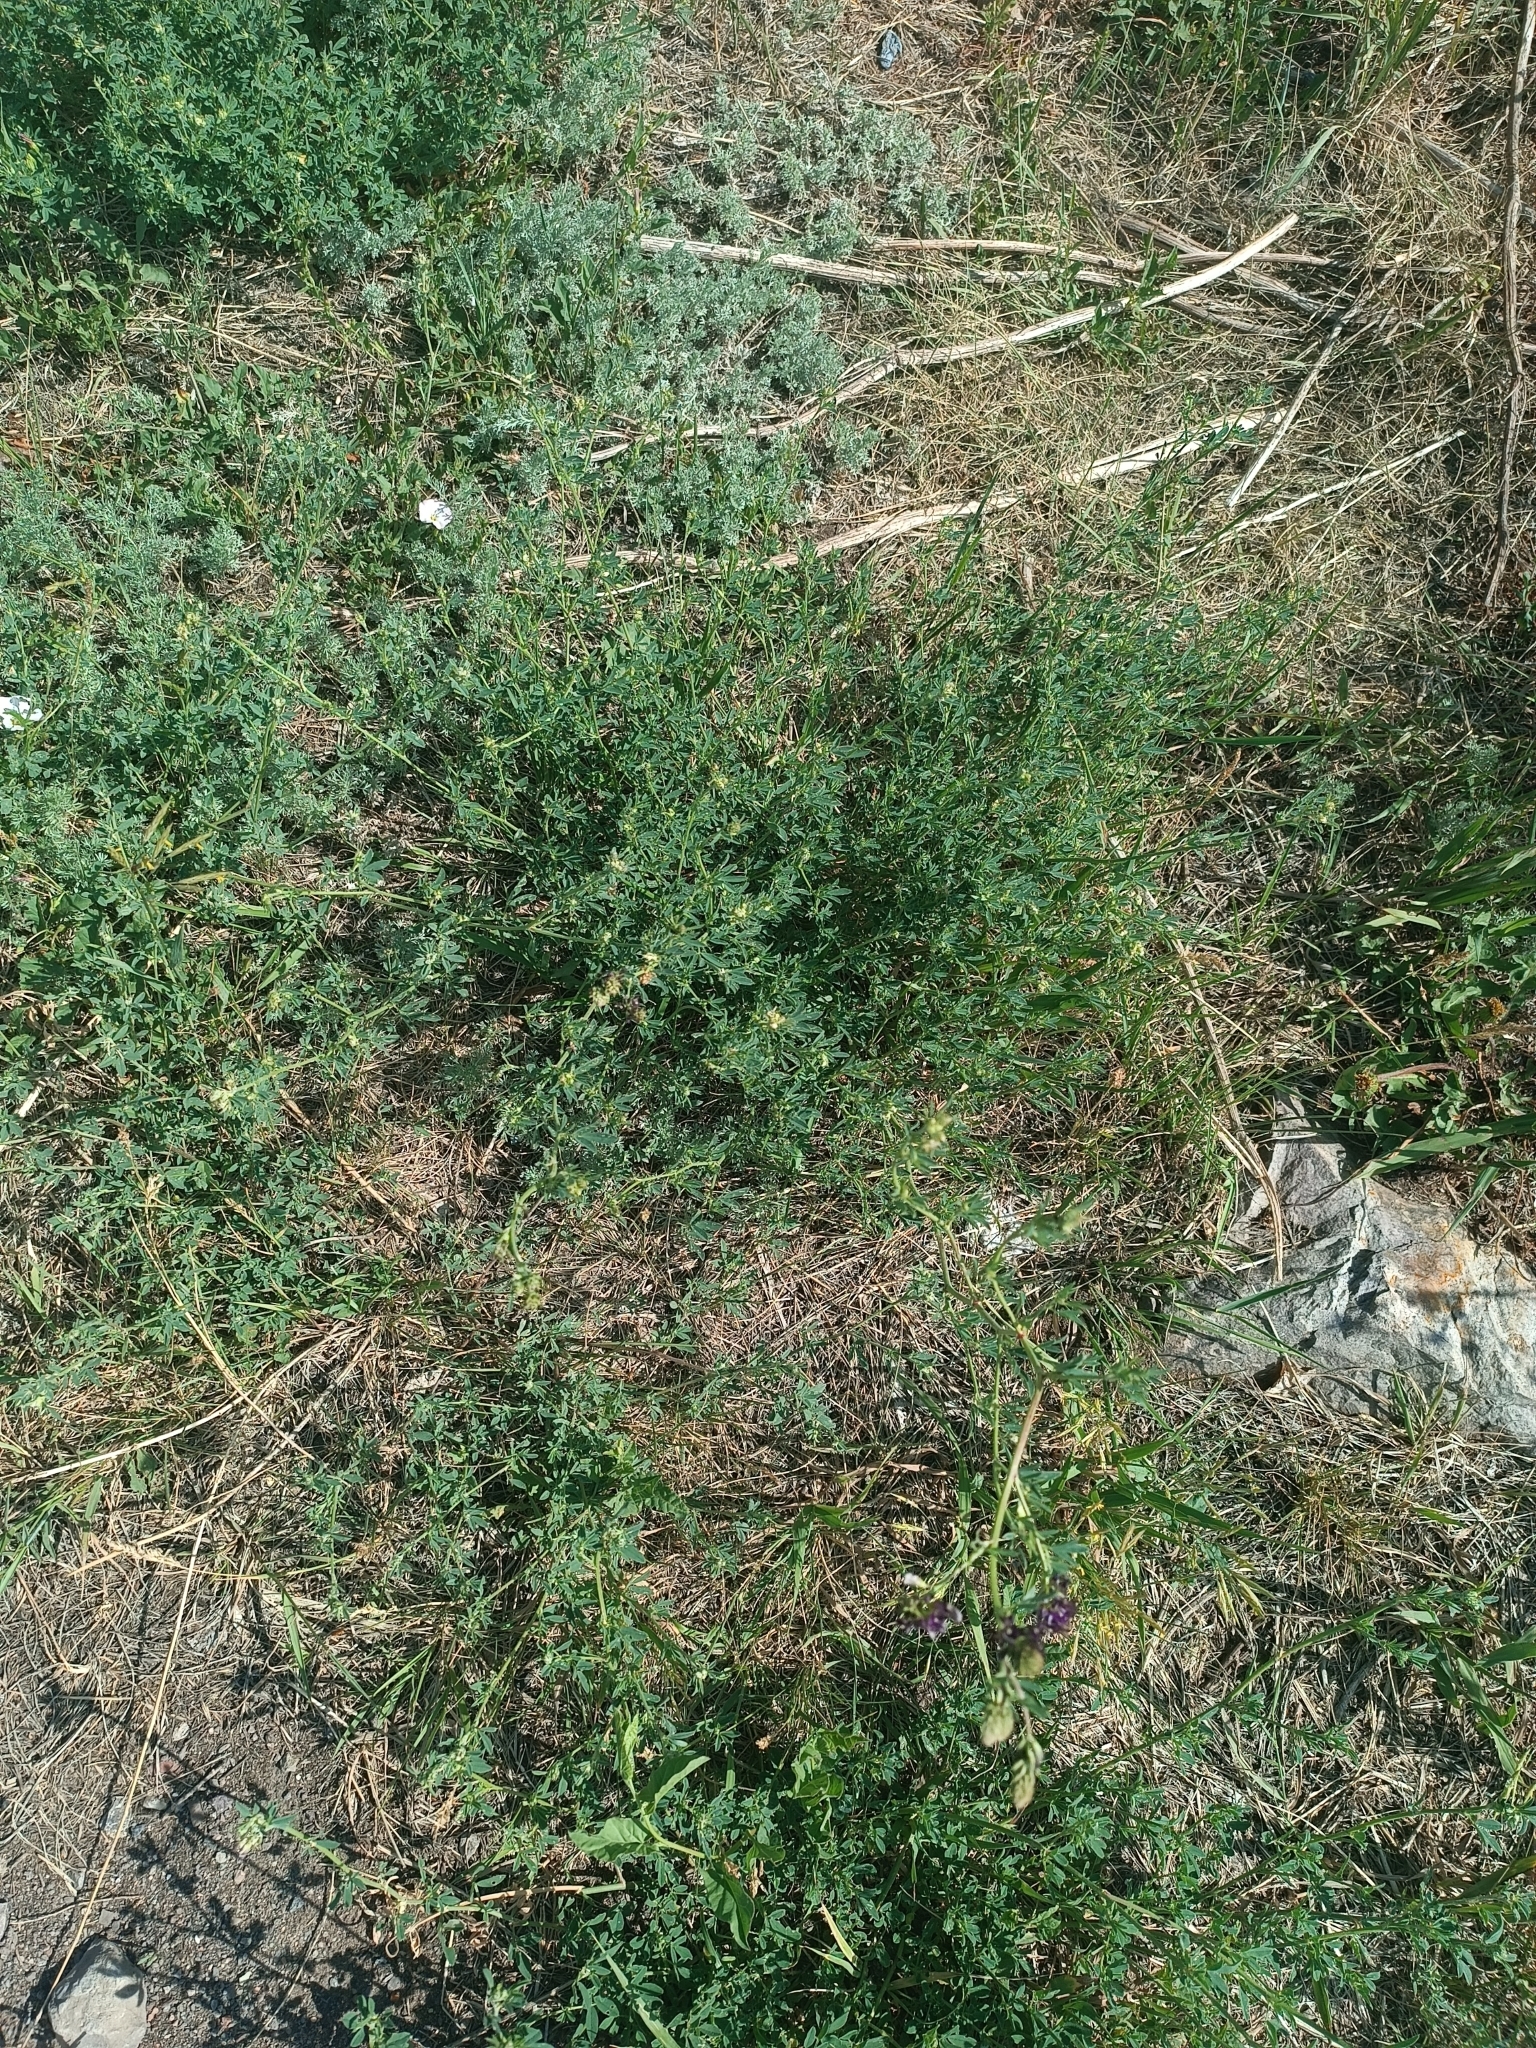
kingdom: Plantae
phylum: Tracheophyta
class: Magnoliopsida
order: Fabales
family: Fabaceae
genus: Medicago
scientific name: Medicago sativa
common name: Alfalfa
